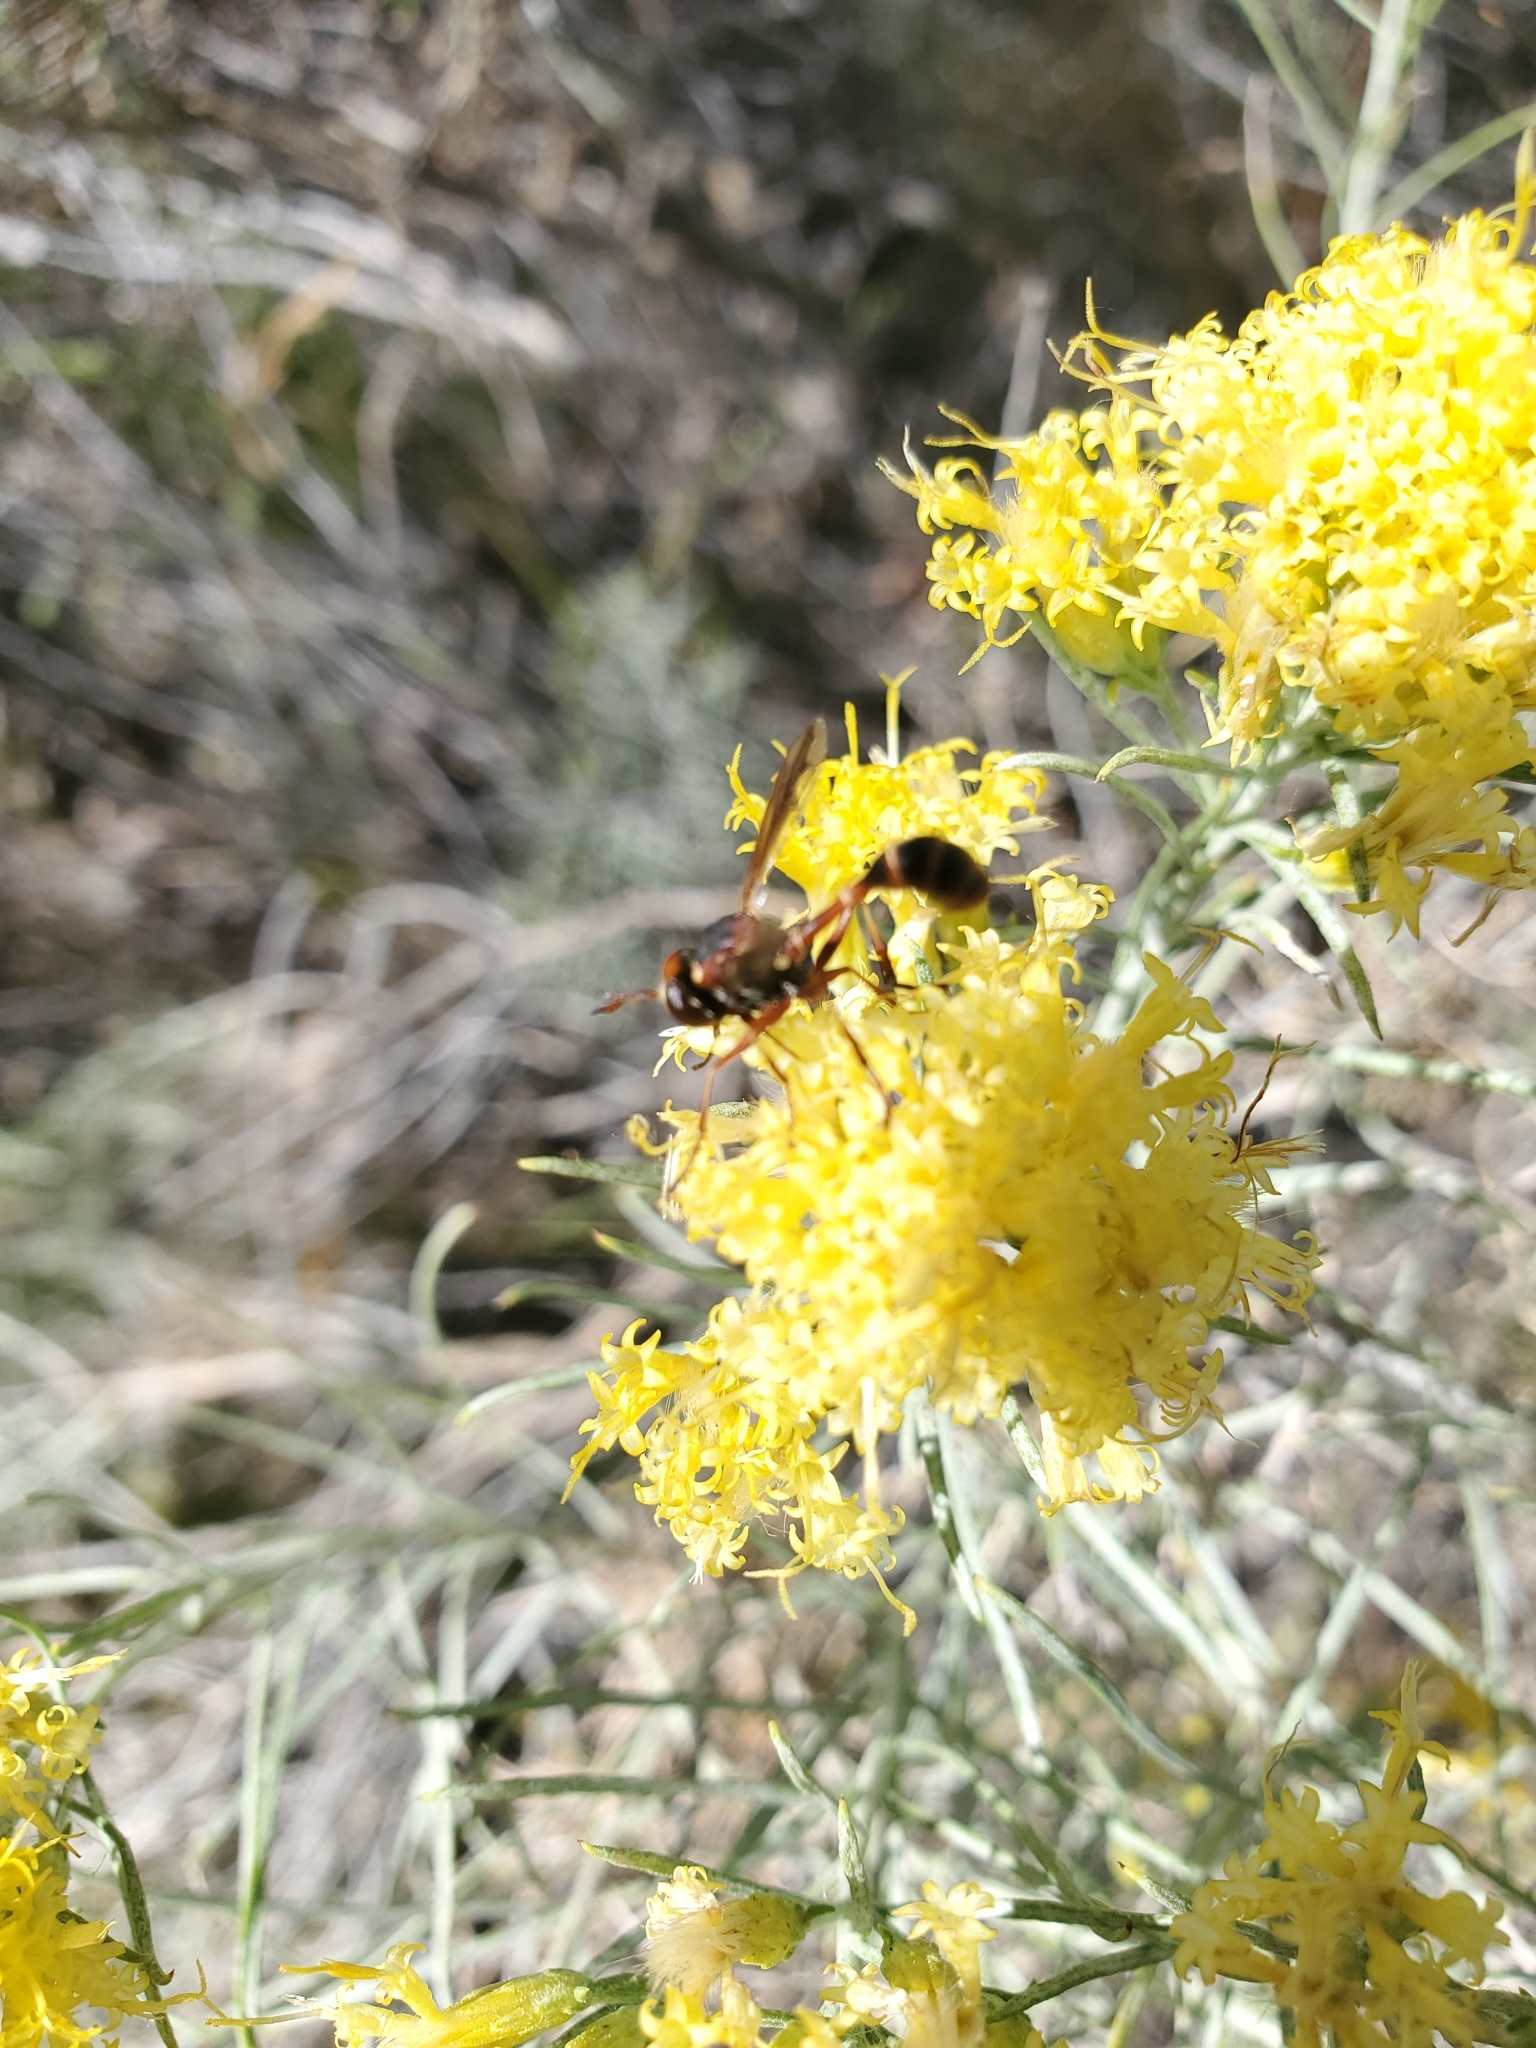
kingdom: Animalia
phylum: Arthropoda
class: Insecta
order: Hymenoptera
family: Sphecidae
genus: Sphex
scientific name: Sphex ichneumoneus
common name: Great golden digger wasp
